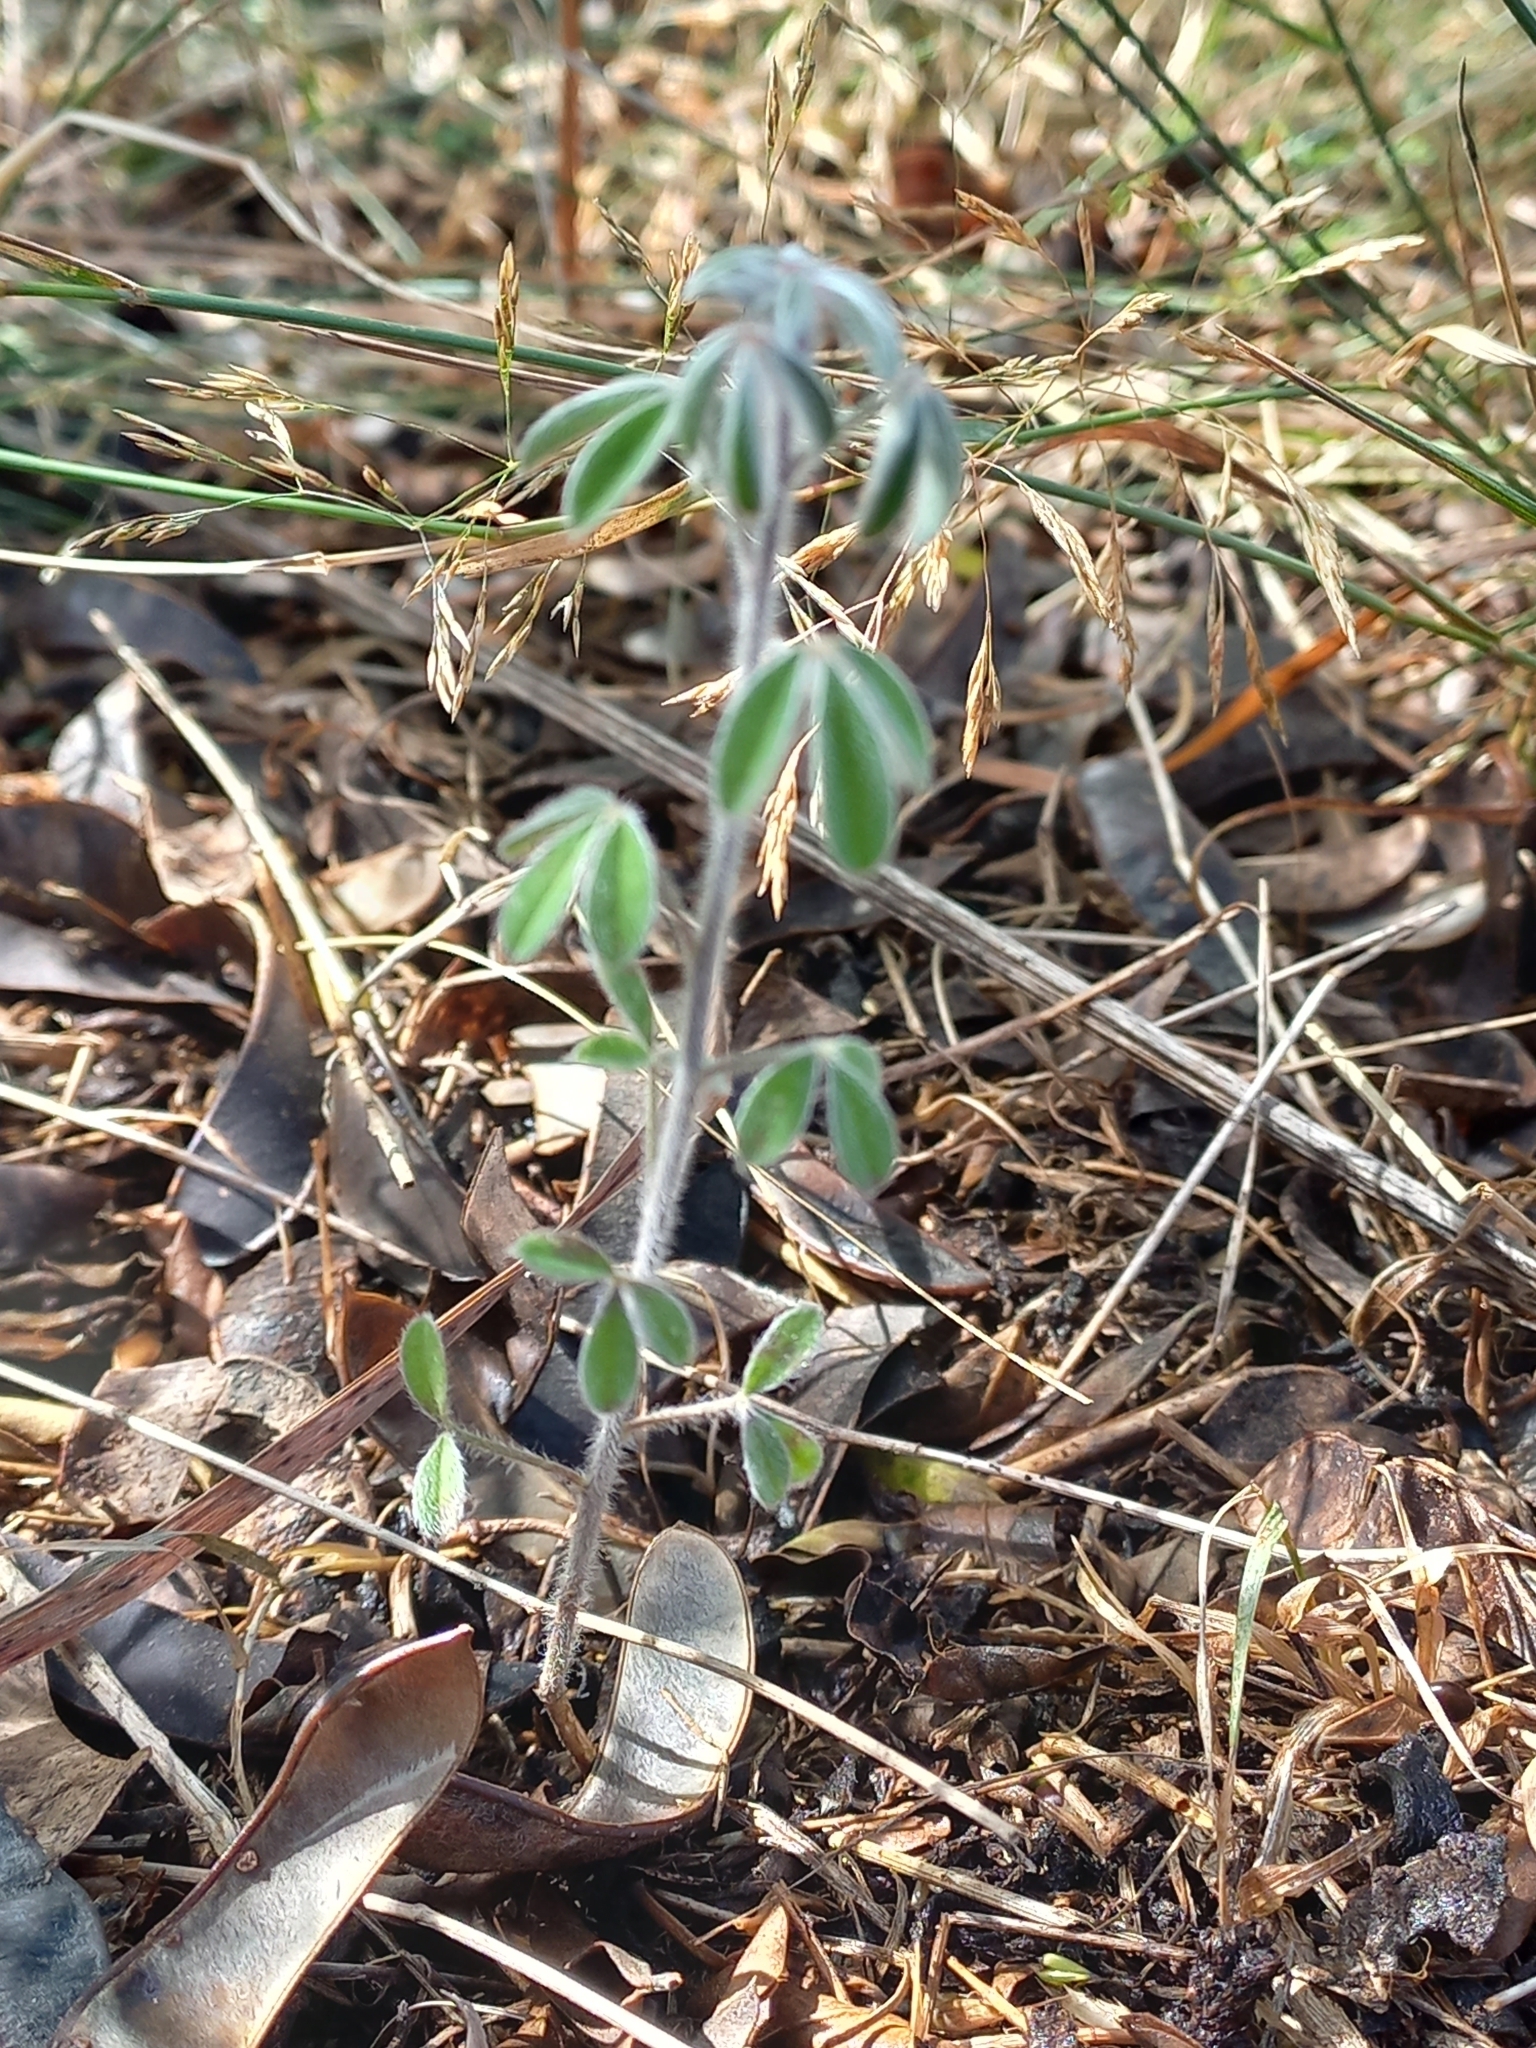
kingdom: Plantae
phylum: Tracheophyta
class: Magnoliopsida
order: Fabales
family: Fabaceae
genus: Chamaecytisus
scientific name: Chamaecytisus prolifer
